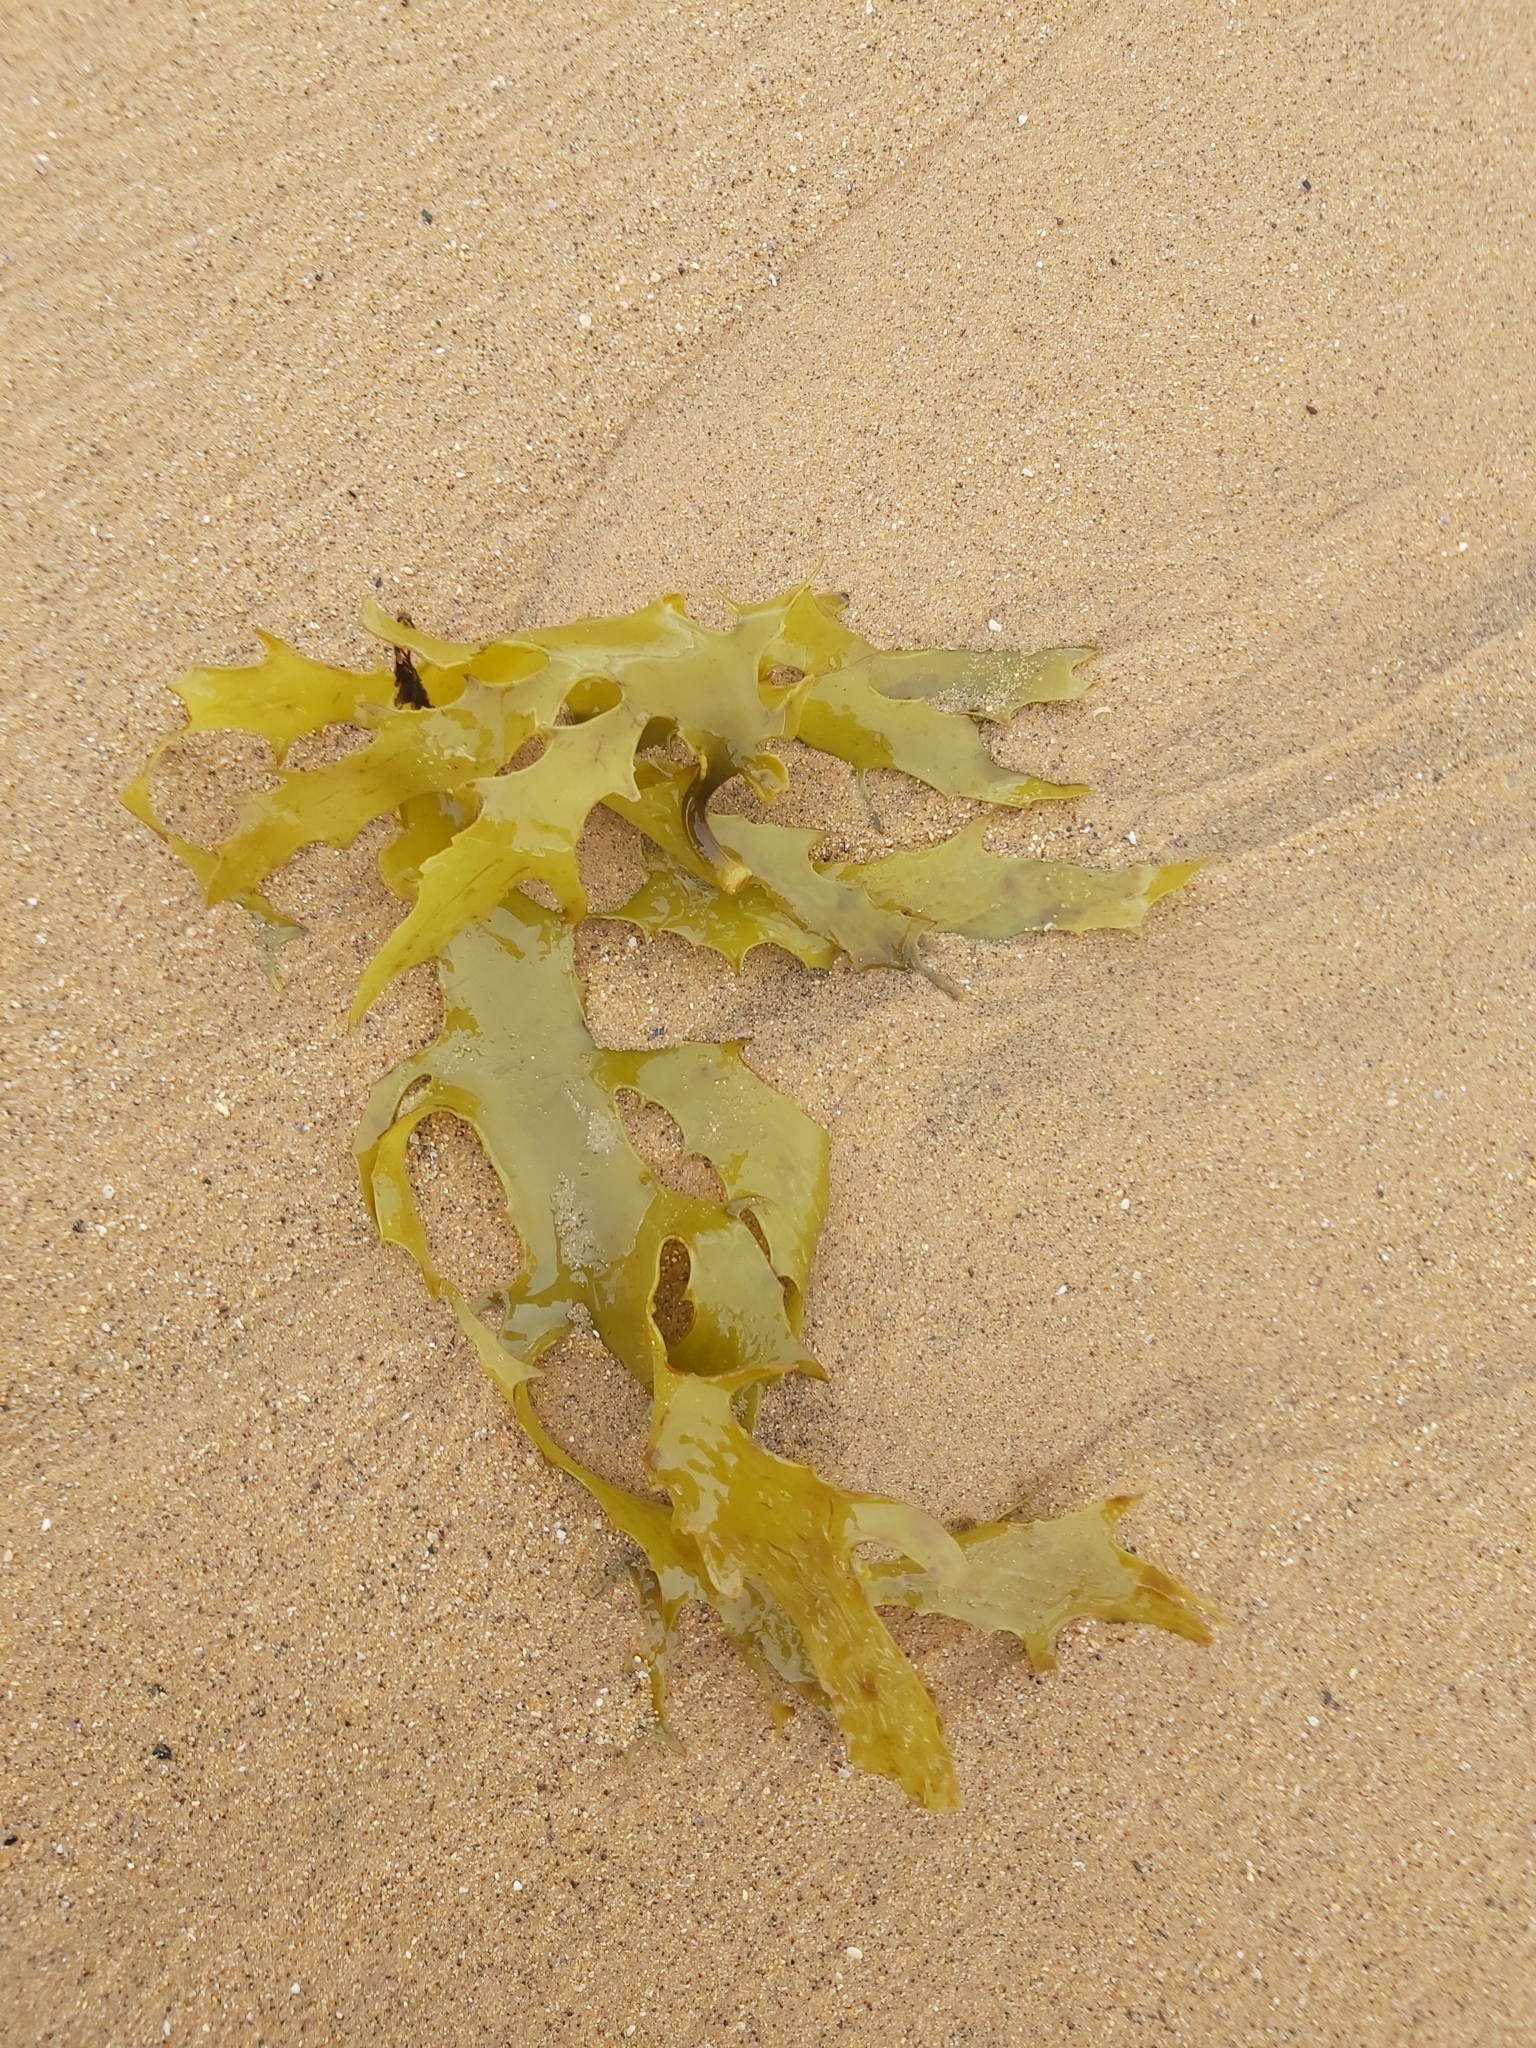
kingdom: Chromista
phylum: Ochrophyta
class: Phaeophyceae
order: Laminariales
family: Lessoniaceae
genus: Ecklonia
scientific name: Ecklonia radiata
